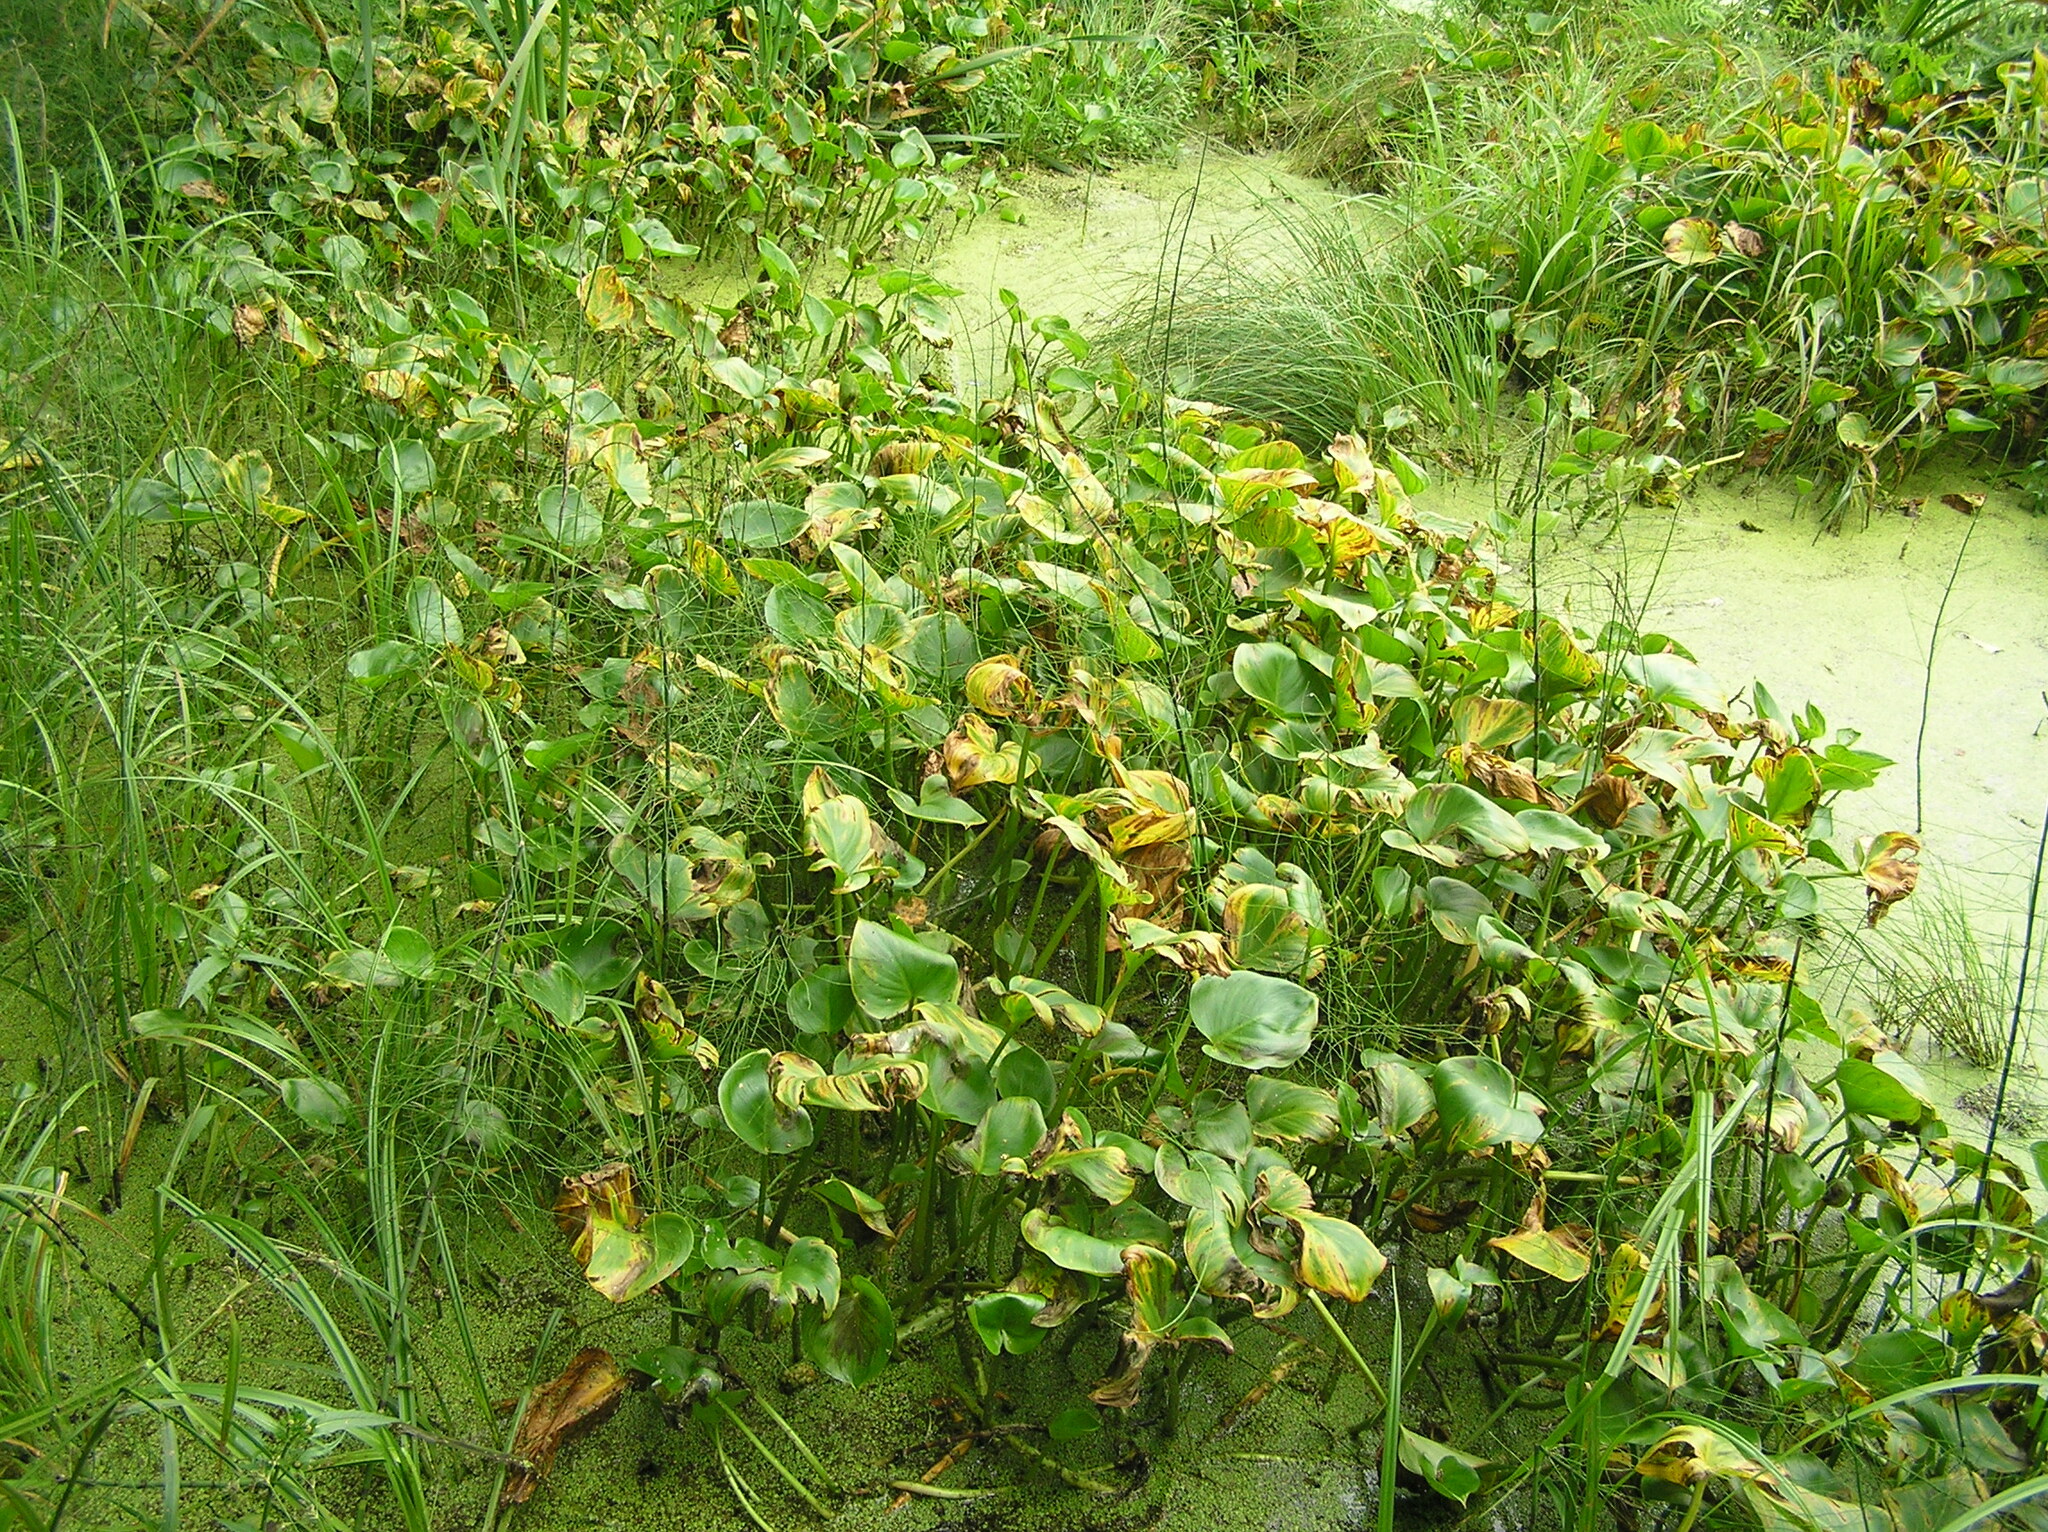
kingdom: Plantae
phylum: Tracheophyta
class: Liliopsida
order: Alismatales
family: Araceae
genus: Calla
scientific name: Calla palustris
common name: Bog arum
